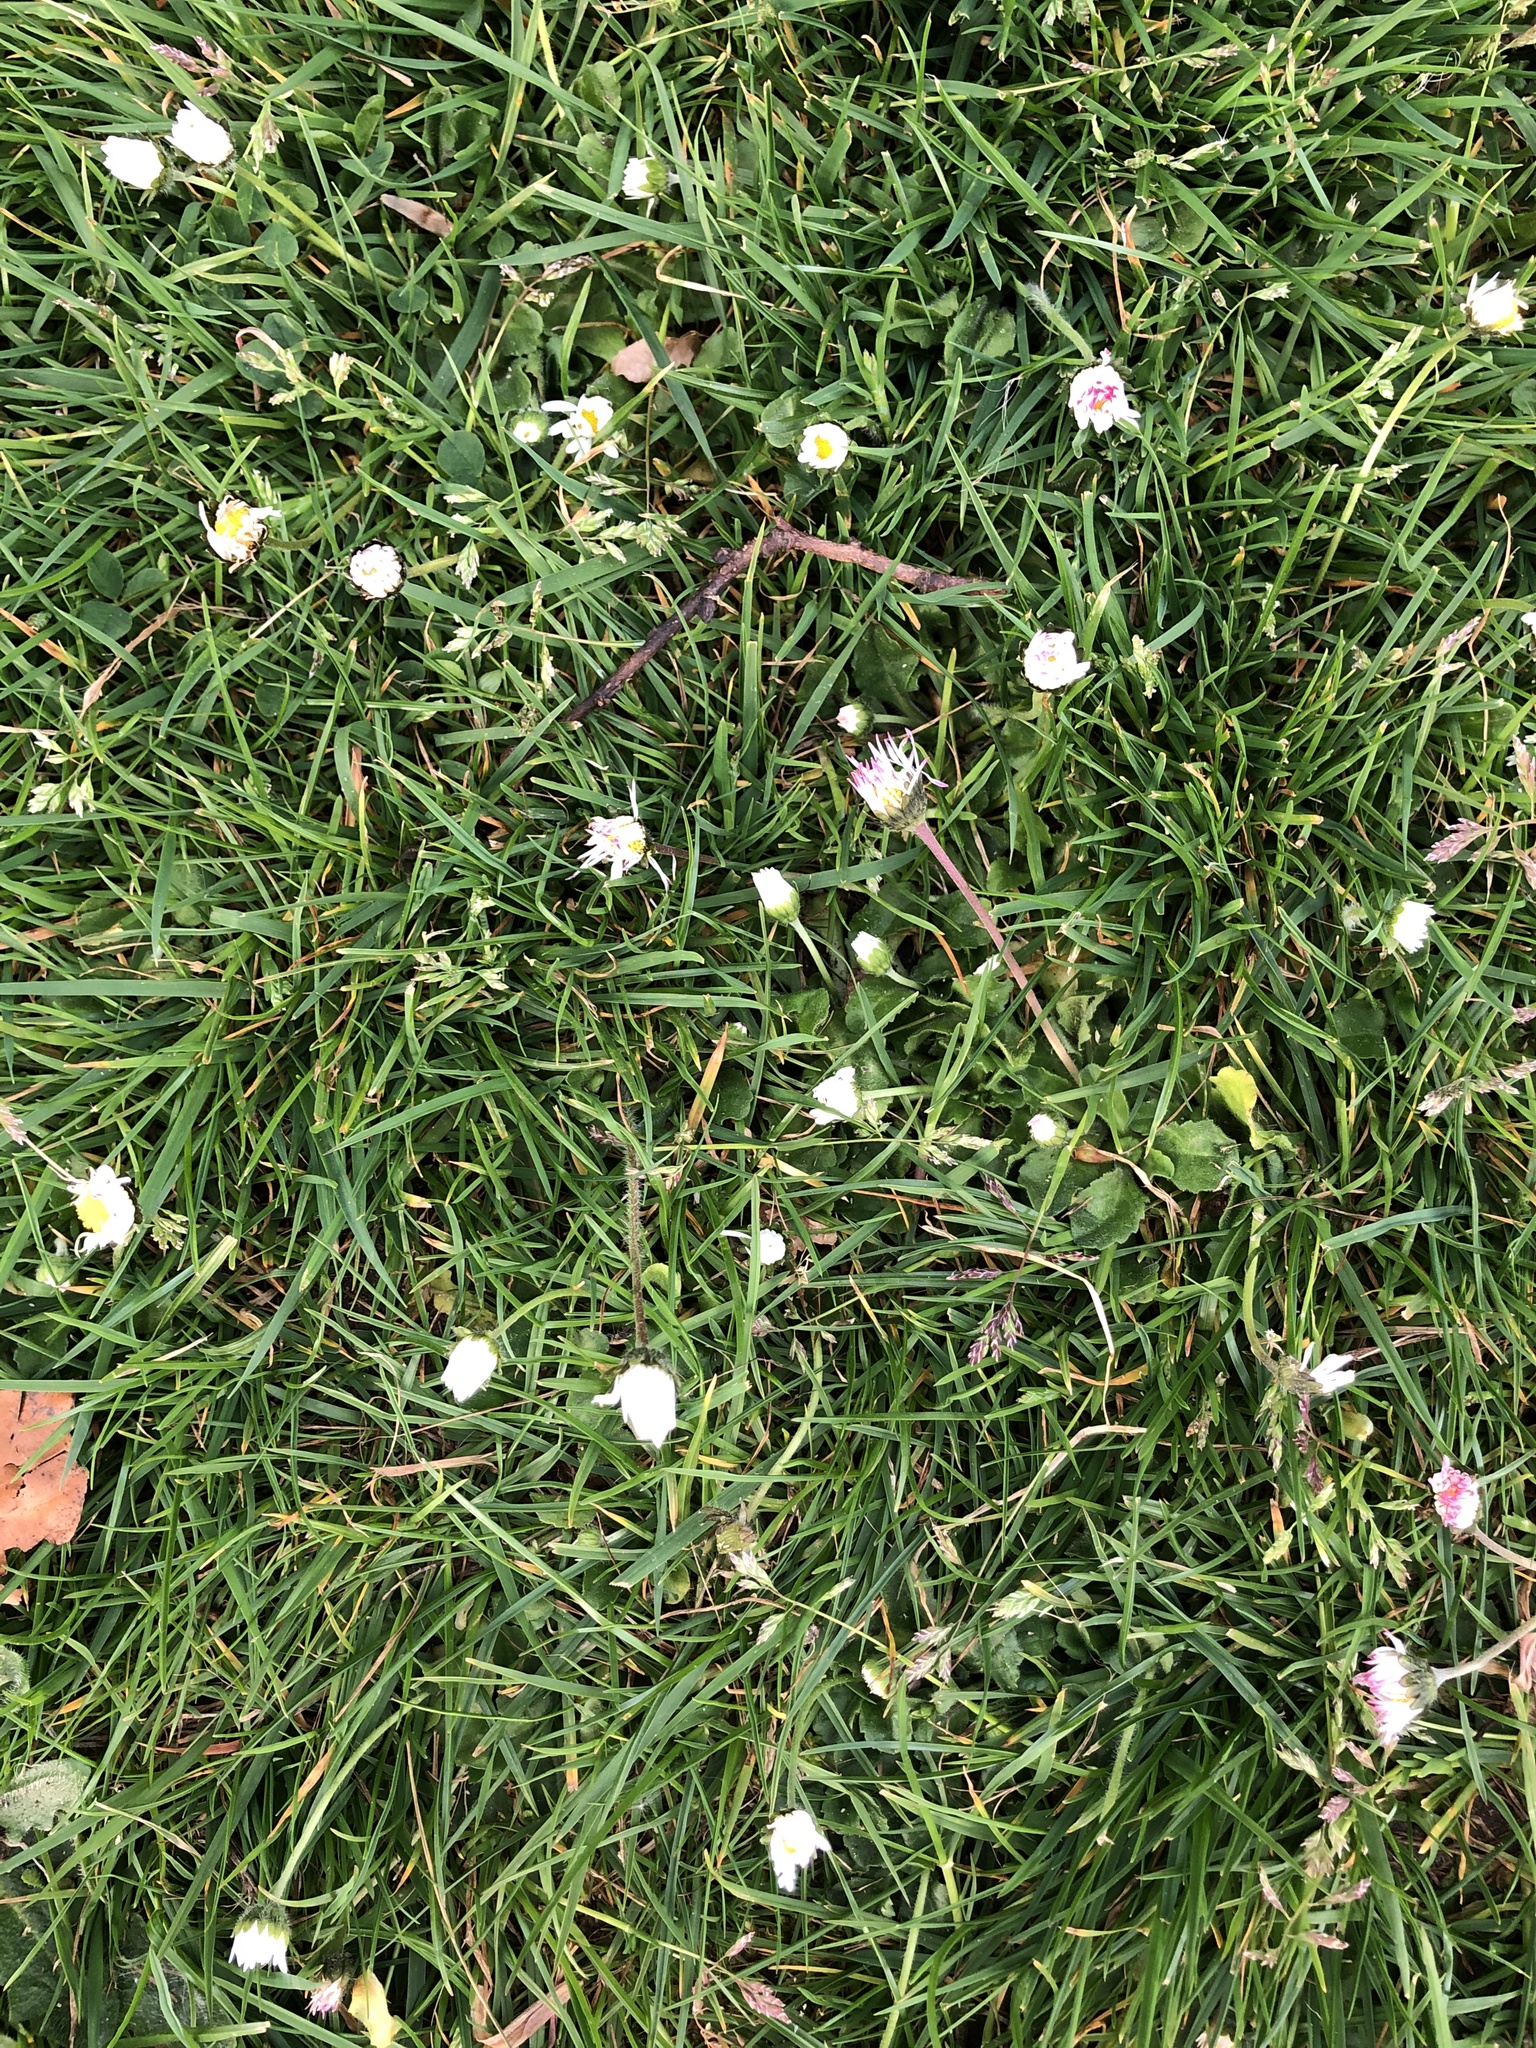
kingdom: Plantae
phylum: Tracheophyta
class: Magnoliopsida
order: Asterales
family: Asteraceae
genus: Bellis
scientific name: Bellis perennis
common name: Lawndaisy
